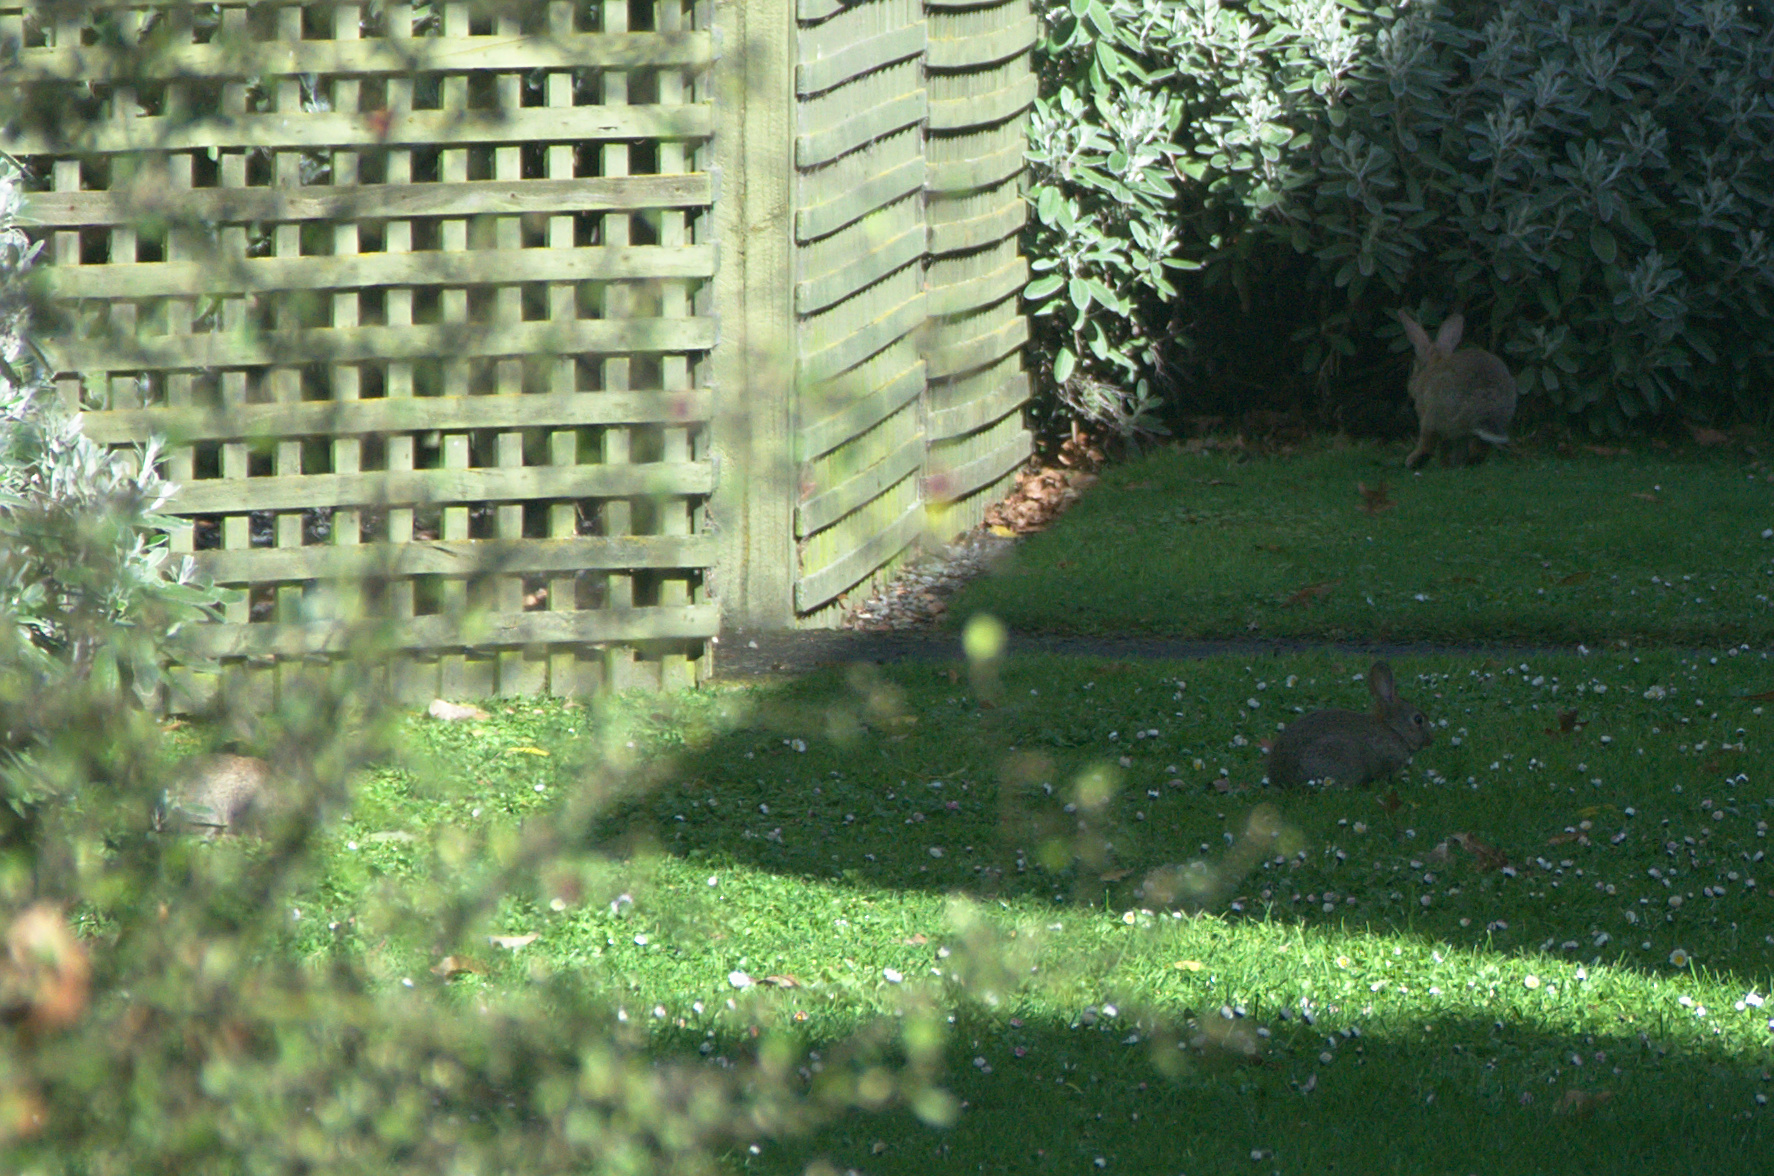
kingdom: Animalia
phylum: Chordata
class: Mammalia
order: Lagomorpha
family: Leporidae
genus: Oryctolagus
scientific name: Oryctolagus cuniculus
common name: European rabbit
